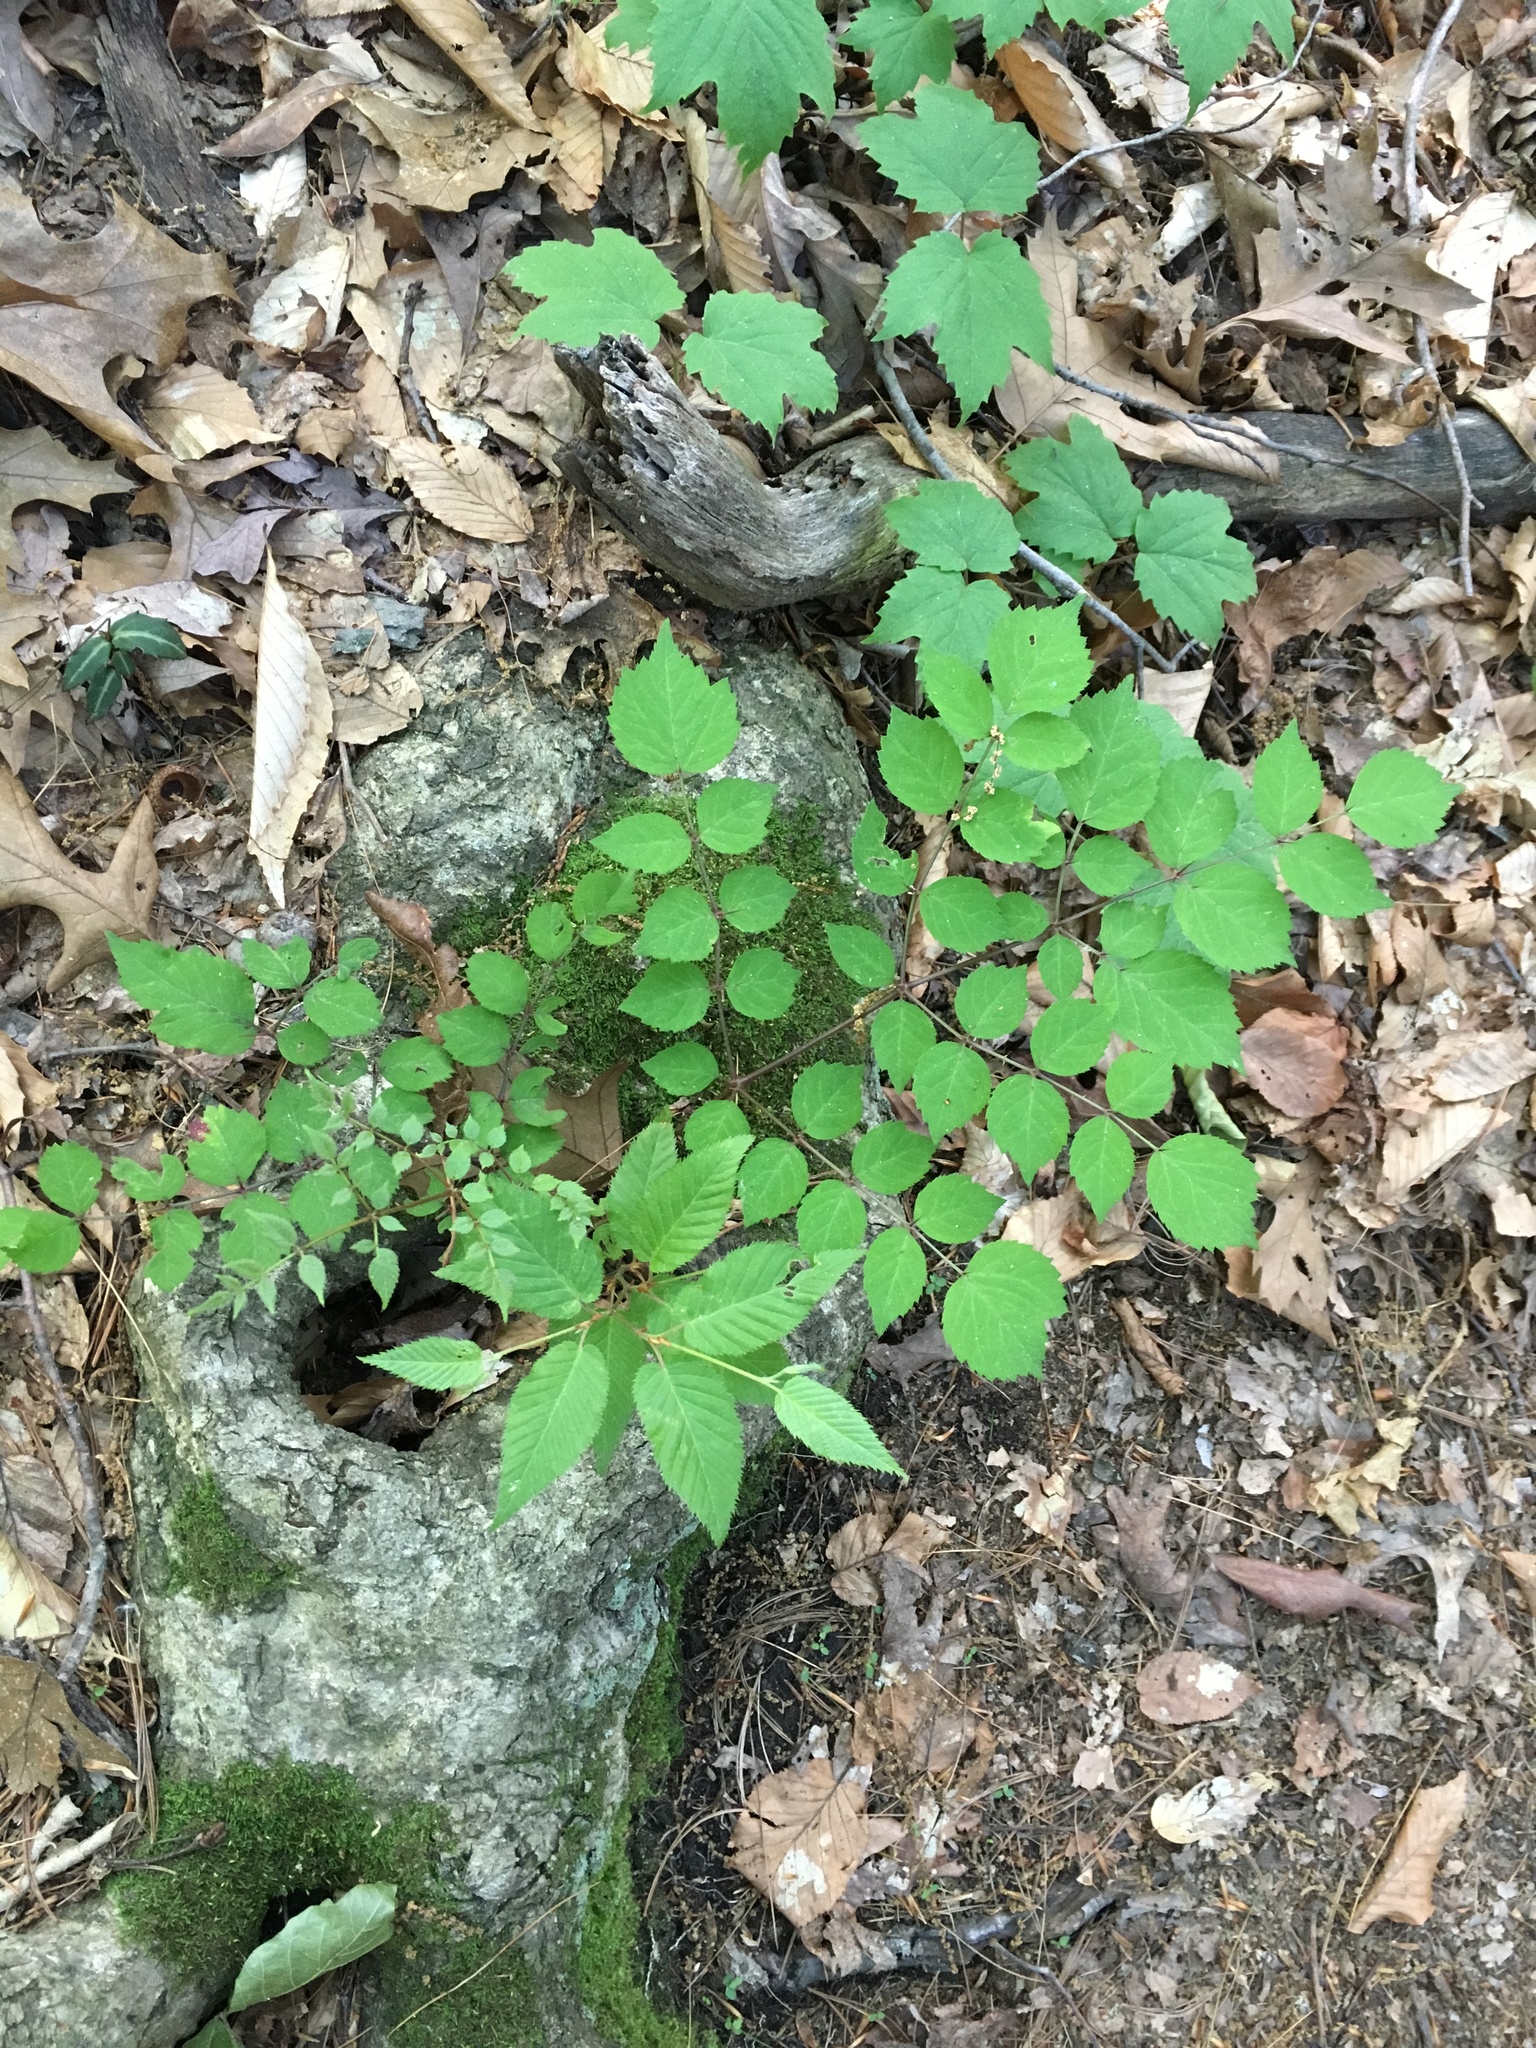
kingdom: Plantae
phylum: Tracheophyta
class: Magnoliopsida
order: Apiales
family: Araliaceae
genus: Aralia
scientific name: Aralia elata
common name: Japanese angelica-tree
